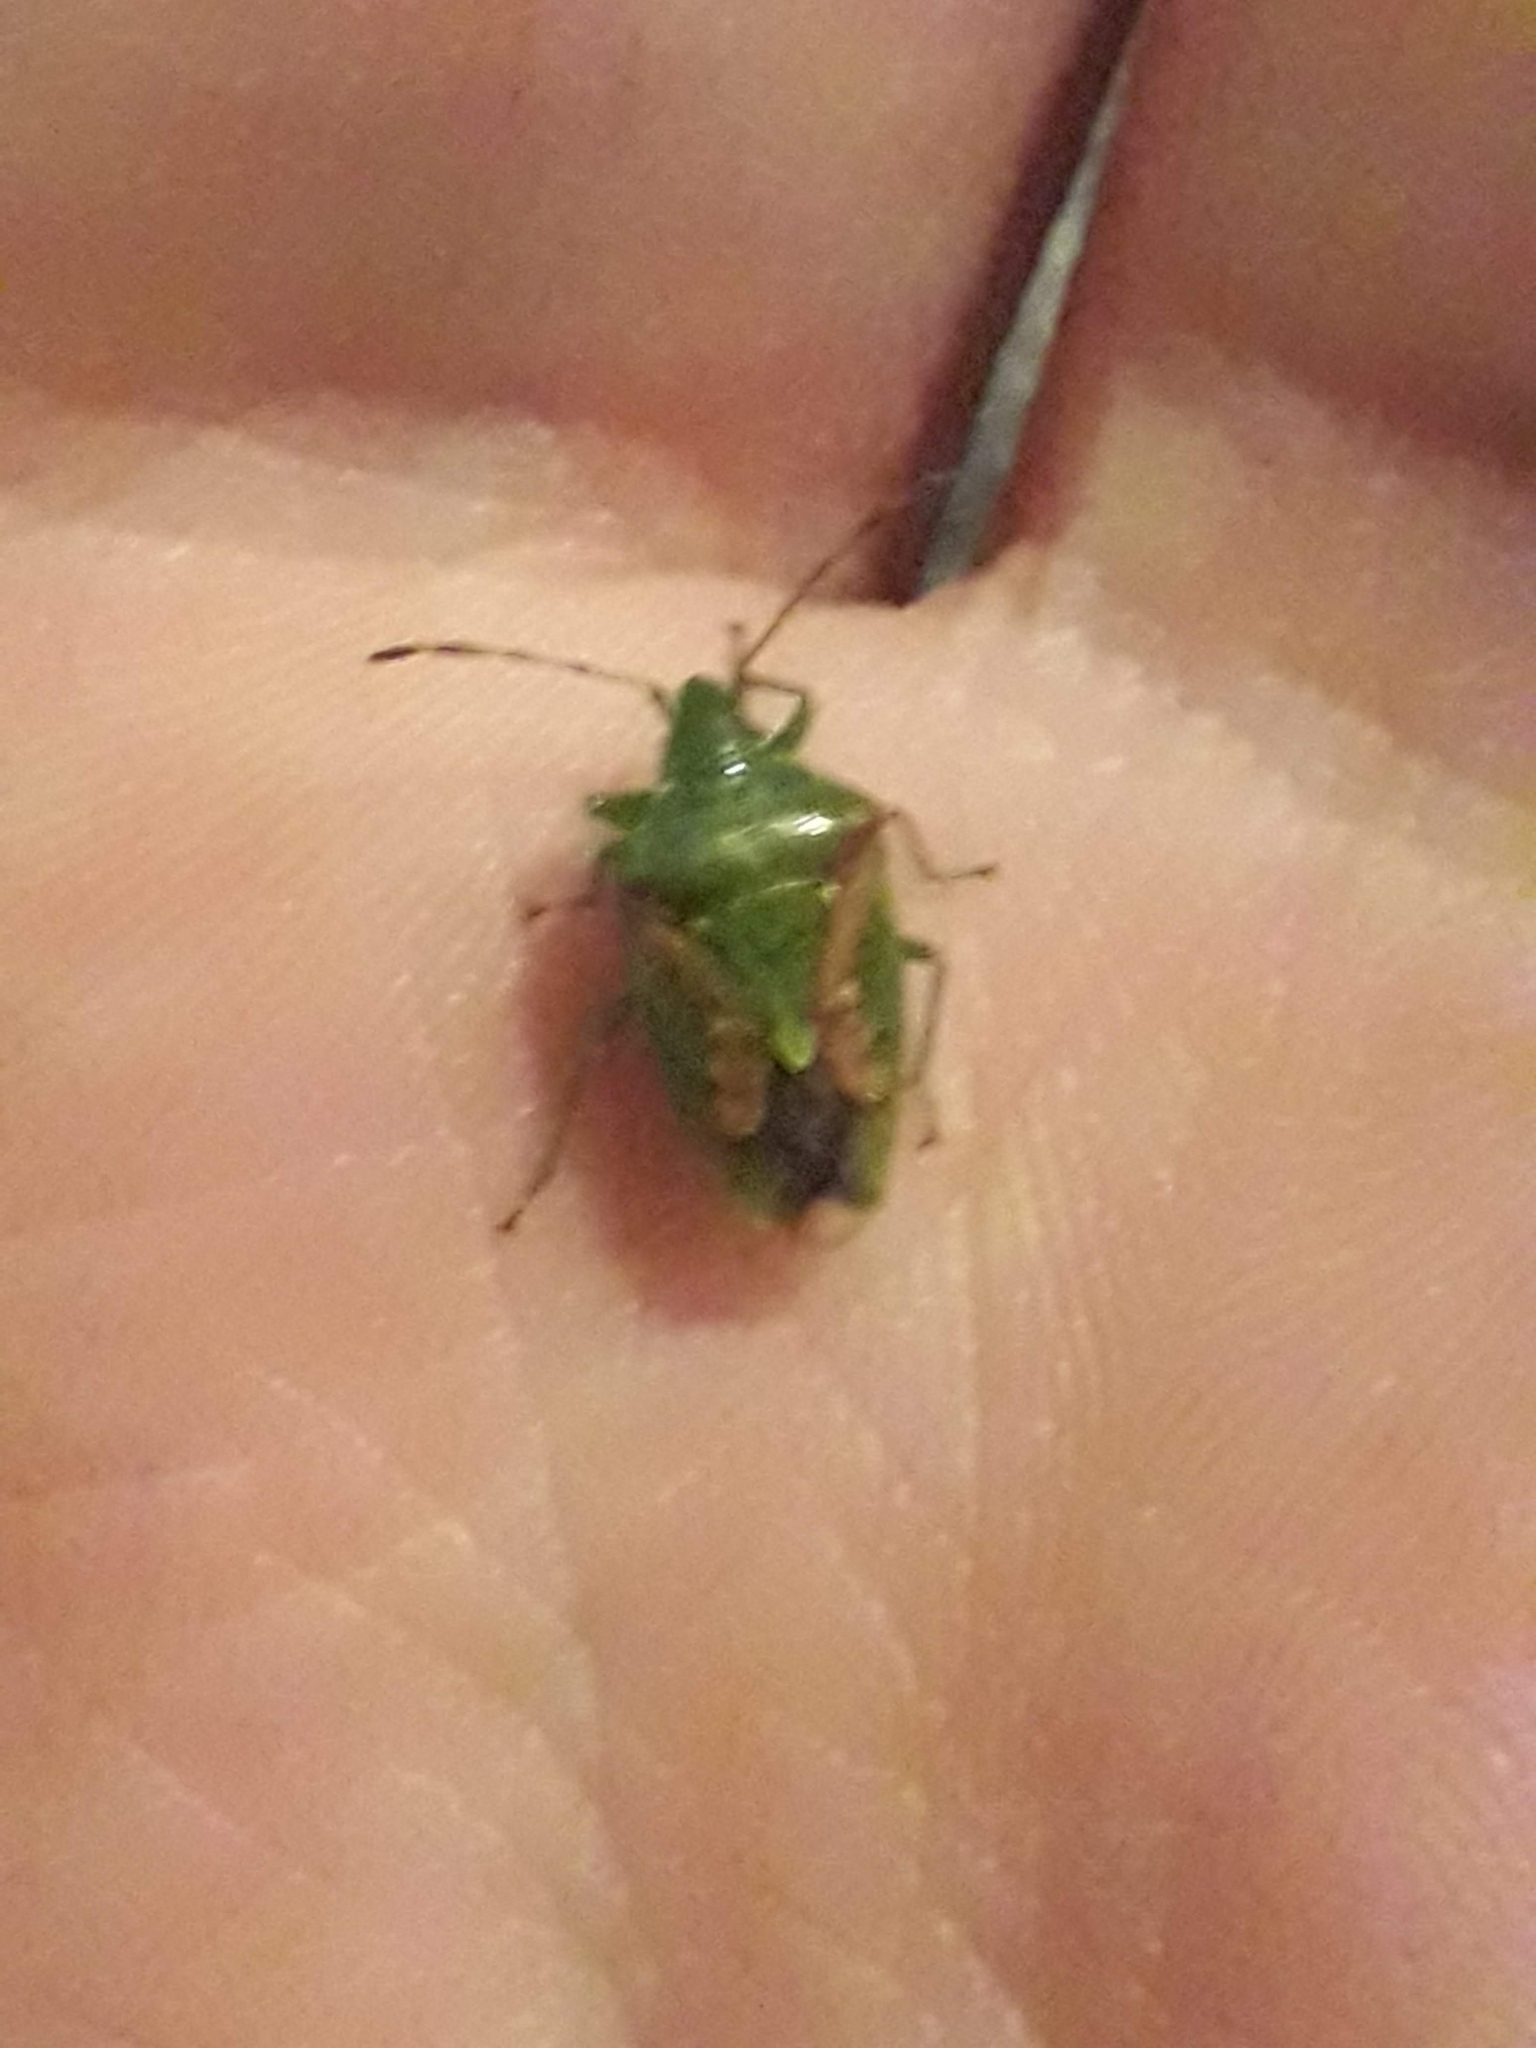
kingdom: Animalia
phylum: Arthropoda
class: Insecta
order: Hemiptera
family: Acanthosomatidae
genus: Cyphostethus
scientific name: Cyphostethus tristriatus
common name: Juniper shieldbug
